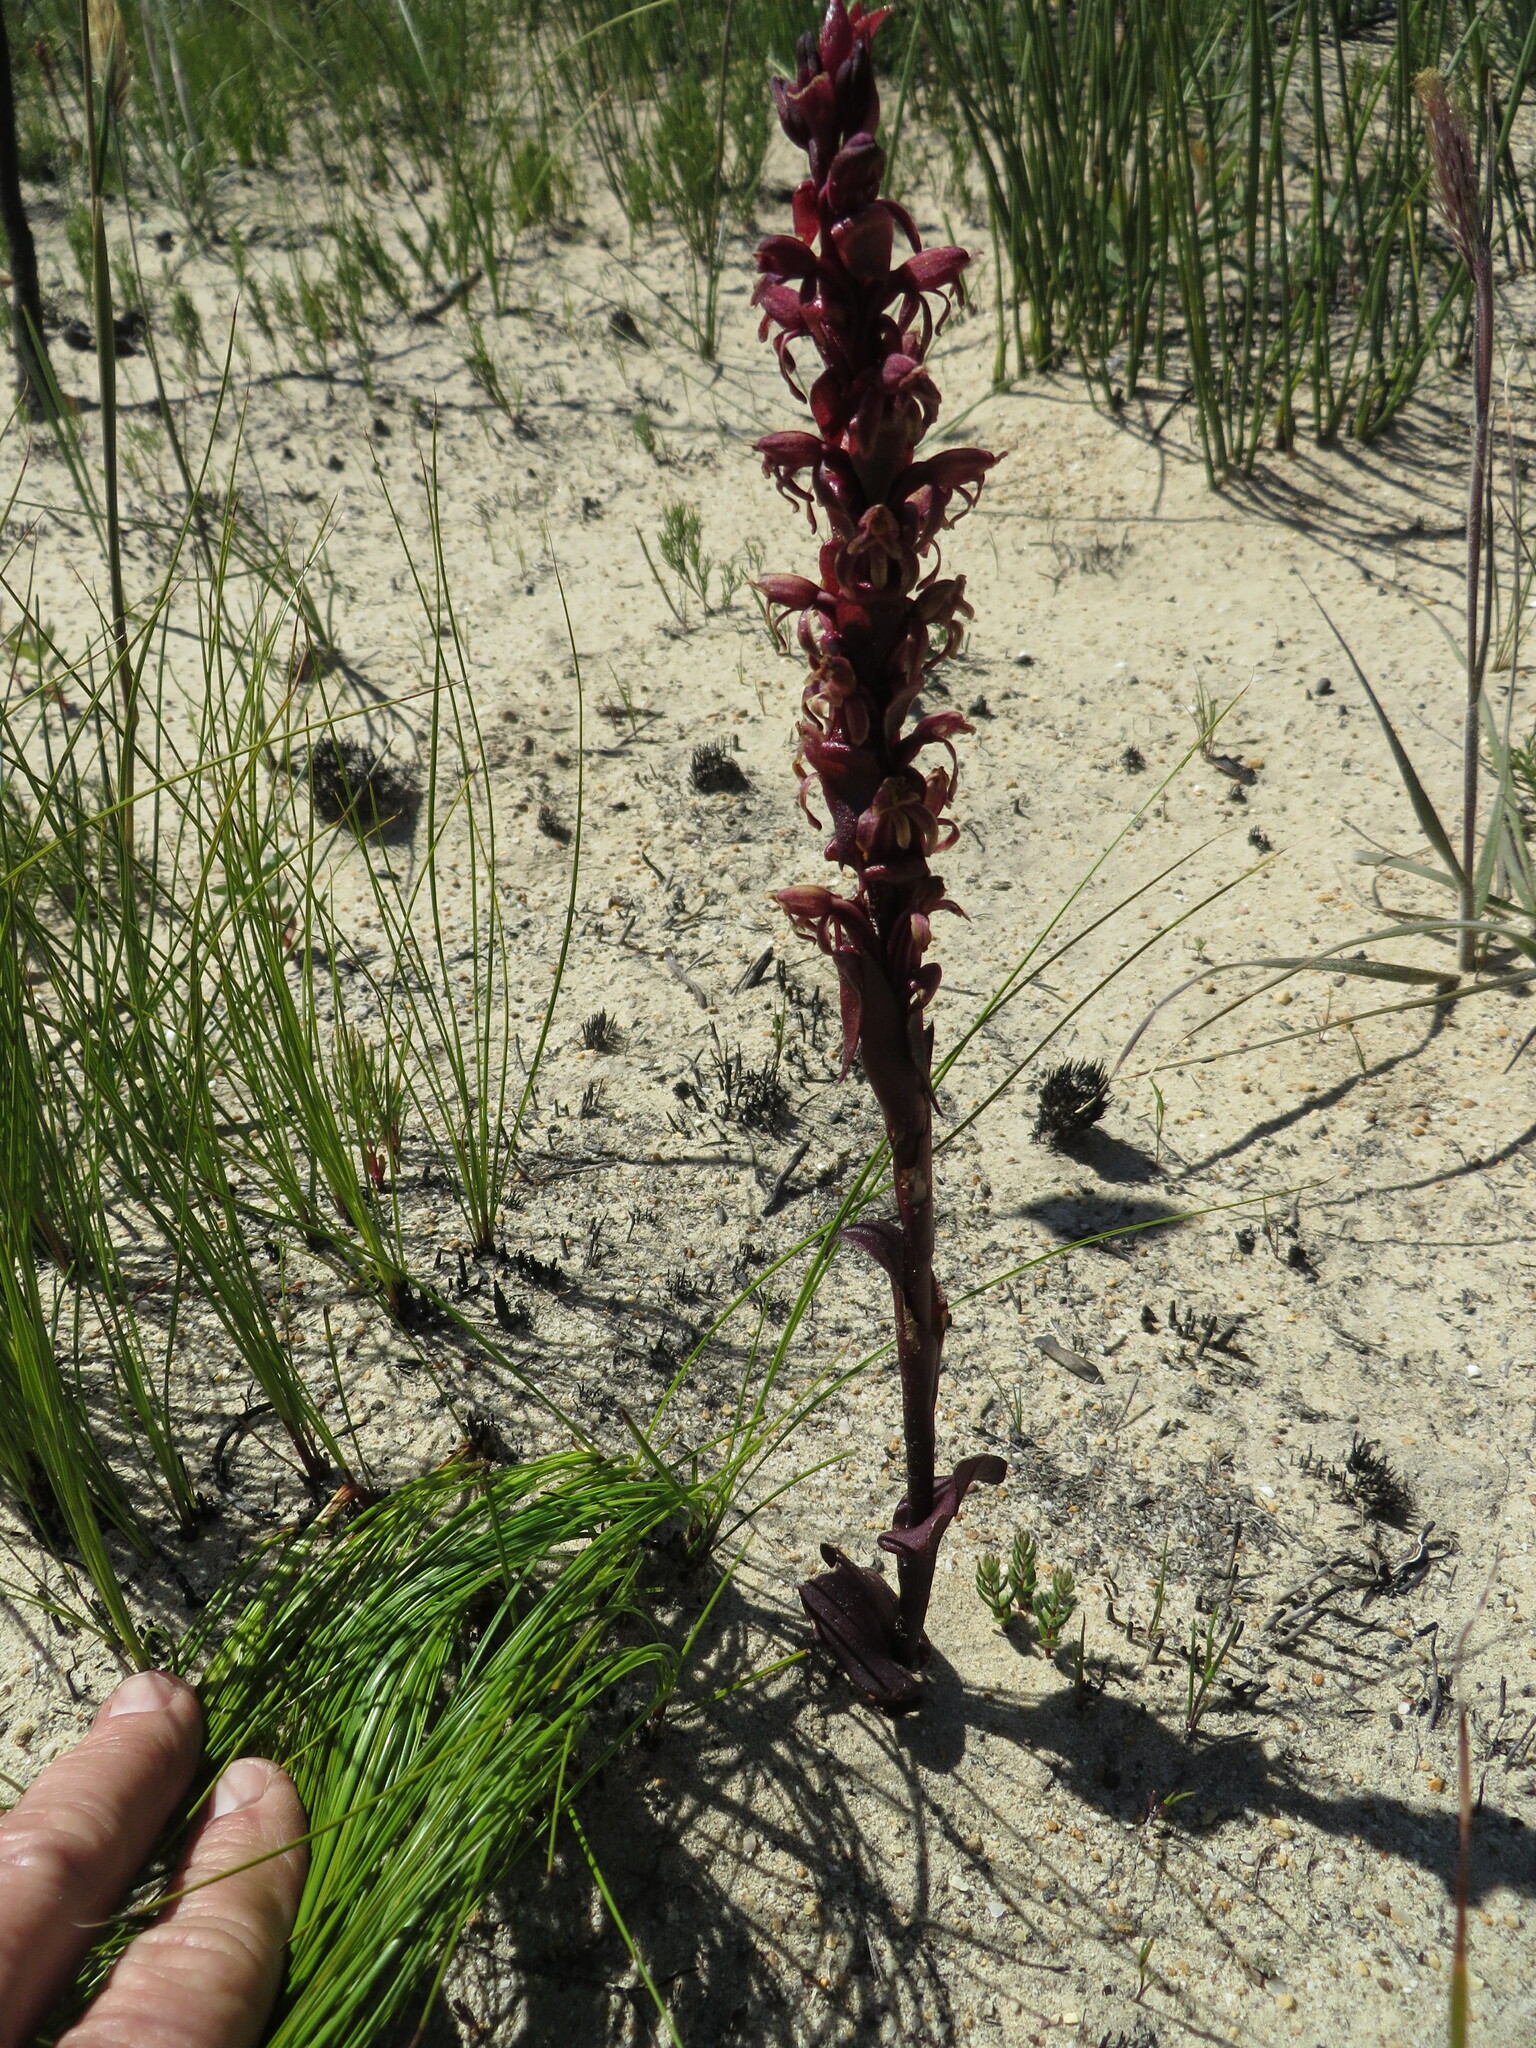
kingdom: Plantae
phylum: Tracheophyta
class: Liliopsida
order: Asparagales
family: Orchidaceae
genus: Satyrium
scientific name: Satyrium lupulinum
